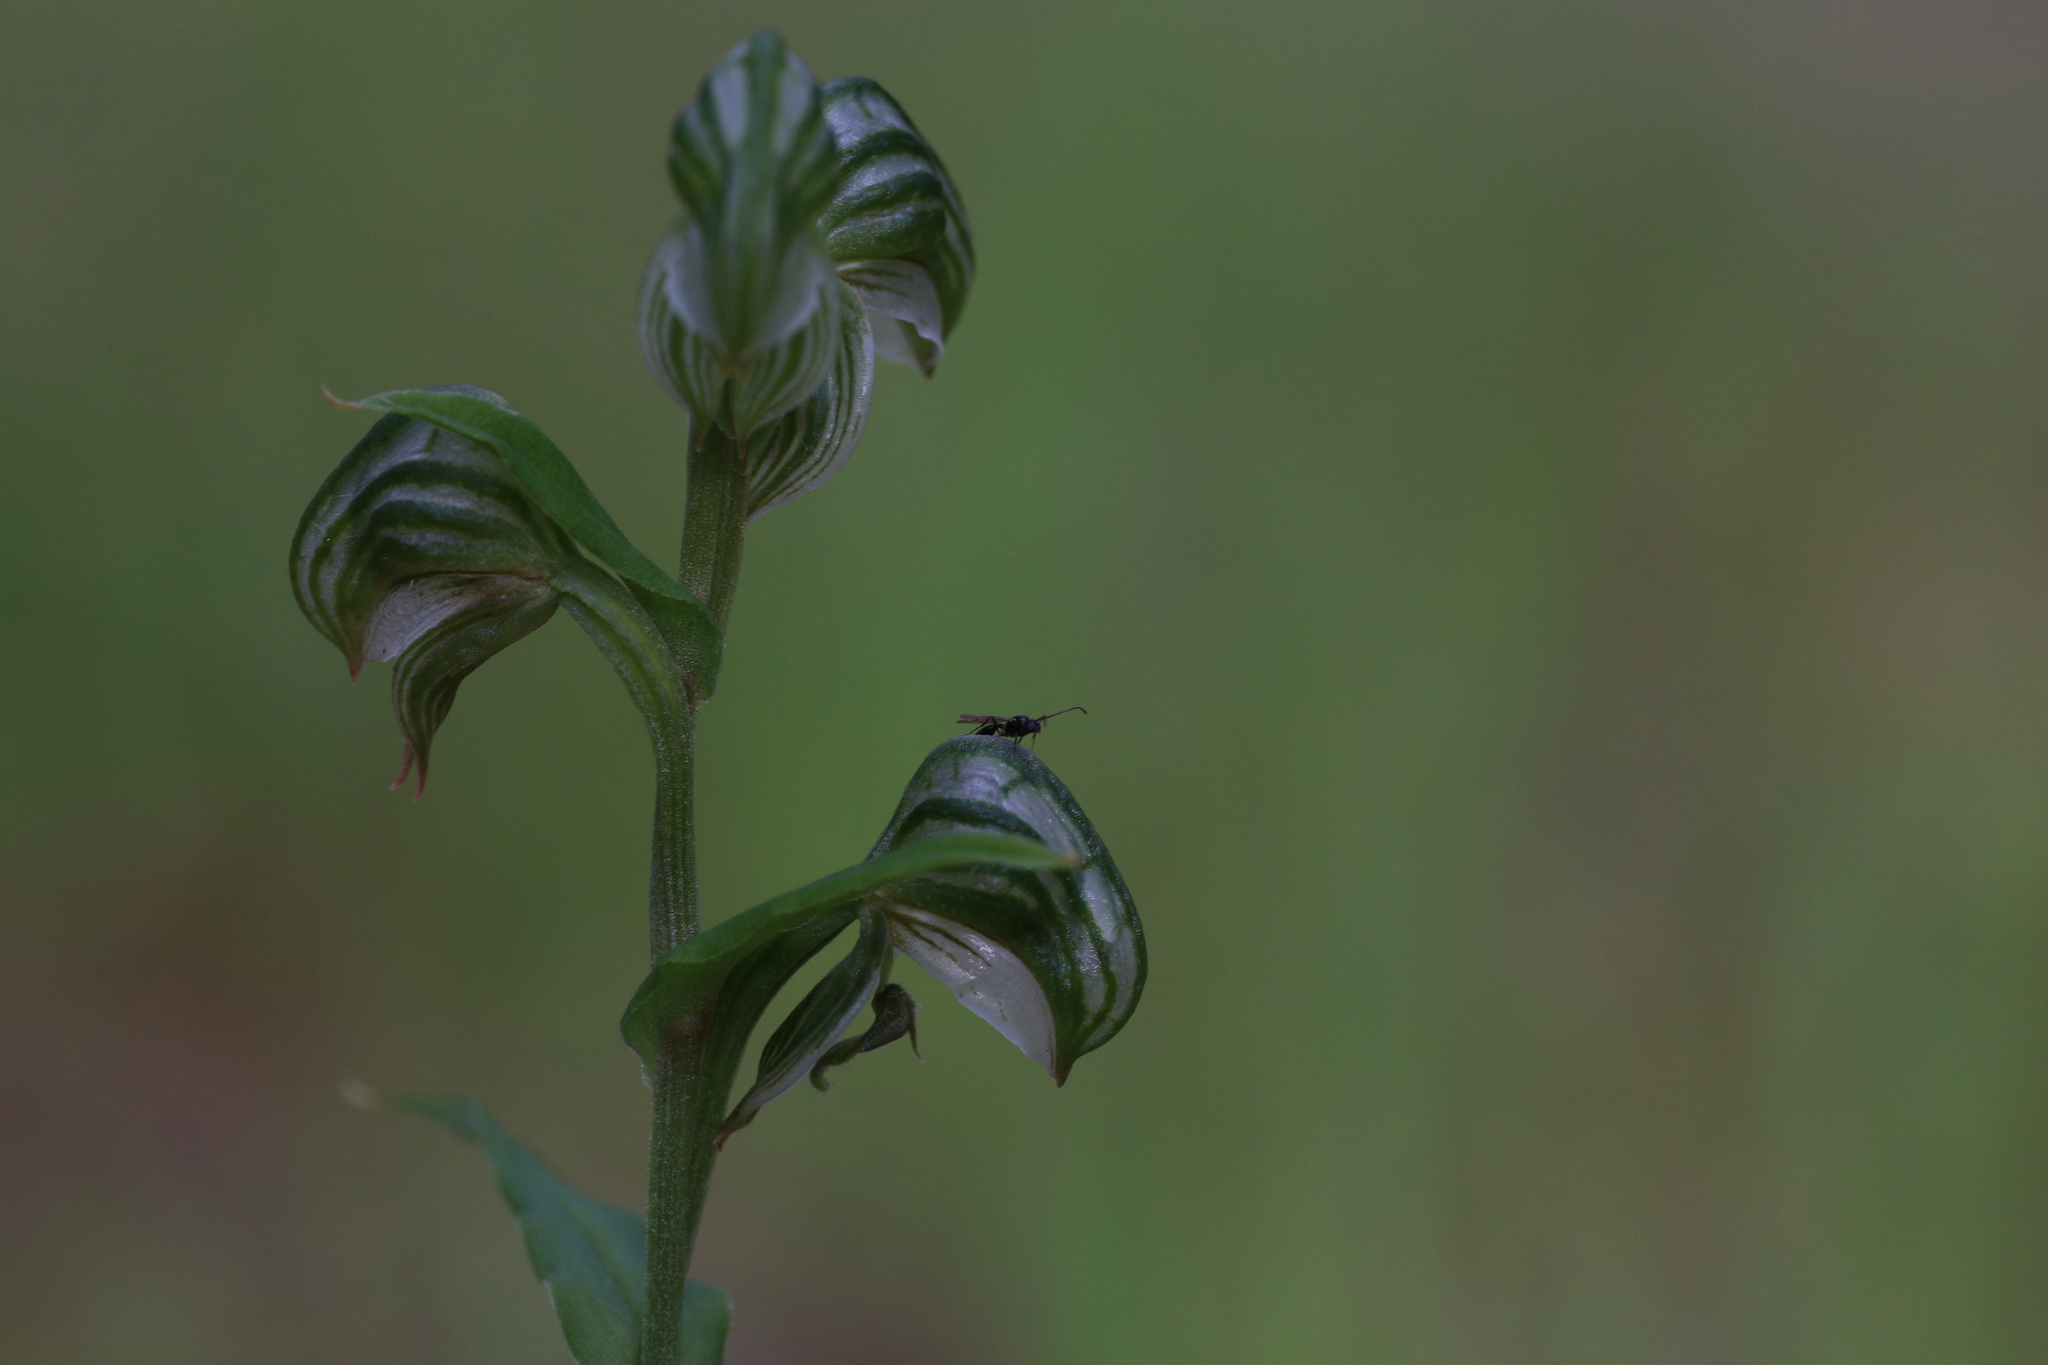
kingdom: Plantae
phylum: Tracheophyta
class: Liliopsida
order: Asparagales
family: Orchidaceae
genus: Pterostylis
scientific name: Pterostylis vittata
